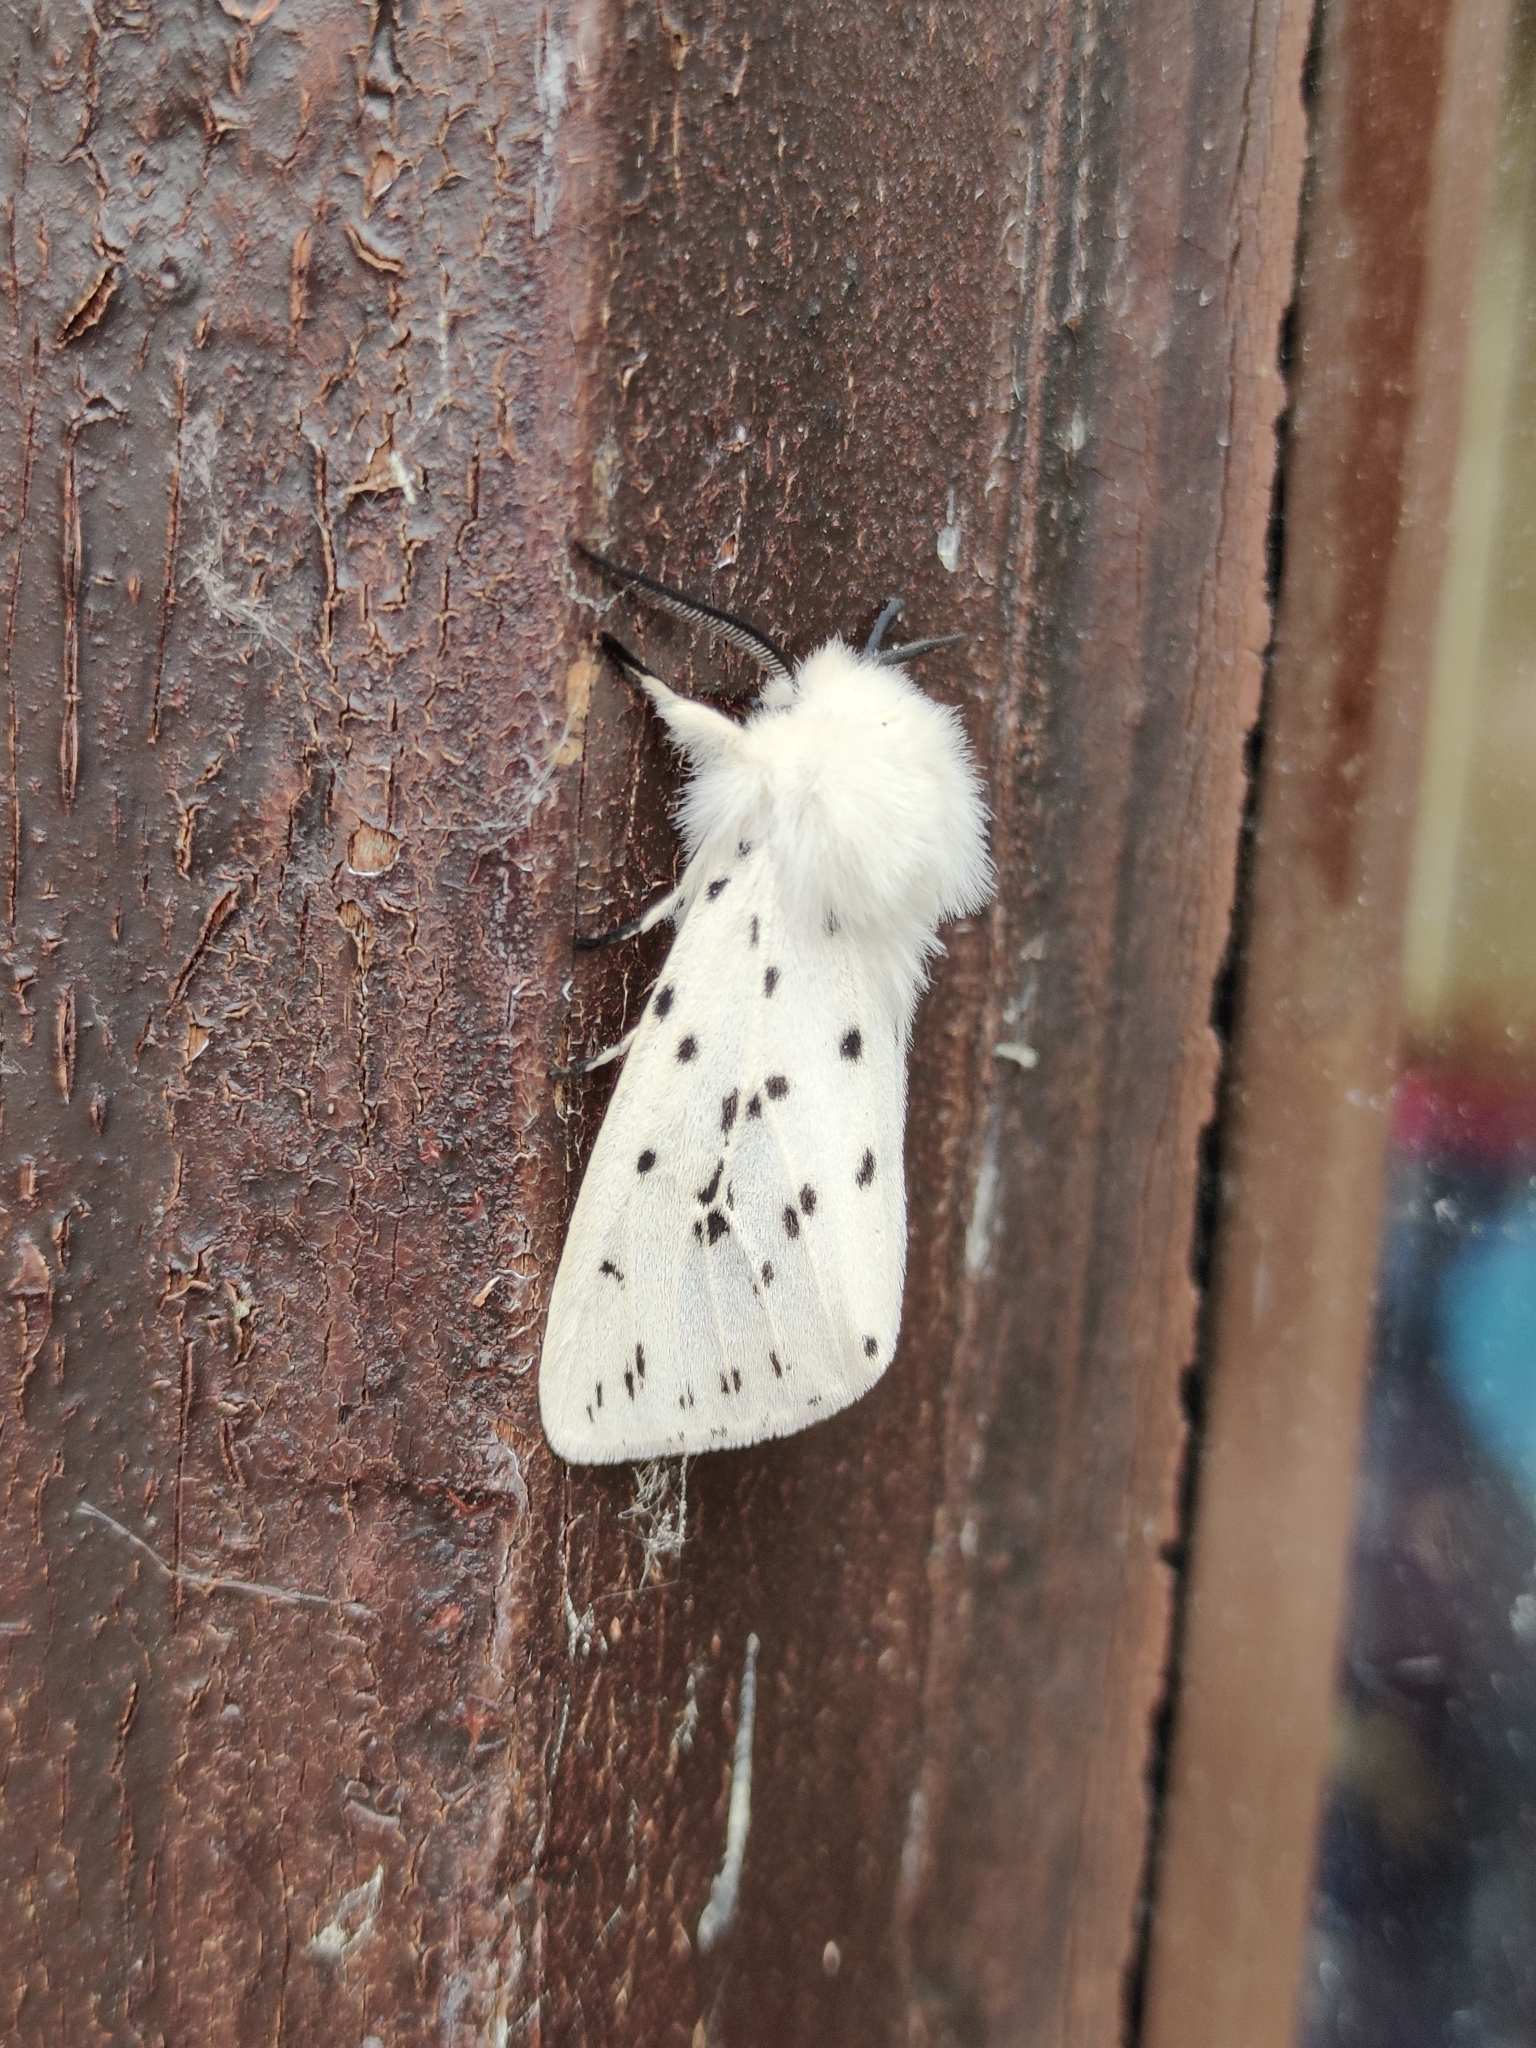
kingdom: Animalia
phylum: Arthropoda
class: Insecta
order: Lepidoptera
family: Erebidae
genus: Spilosoma
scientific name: Spilosoma lubricipeda
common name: White ermine
